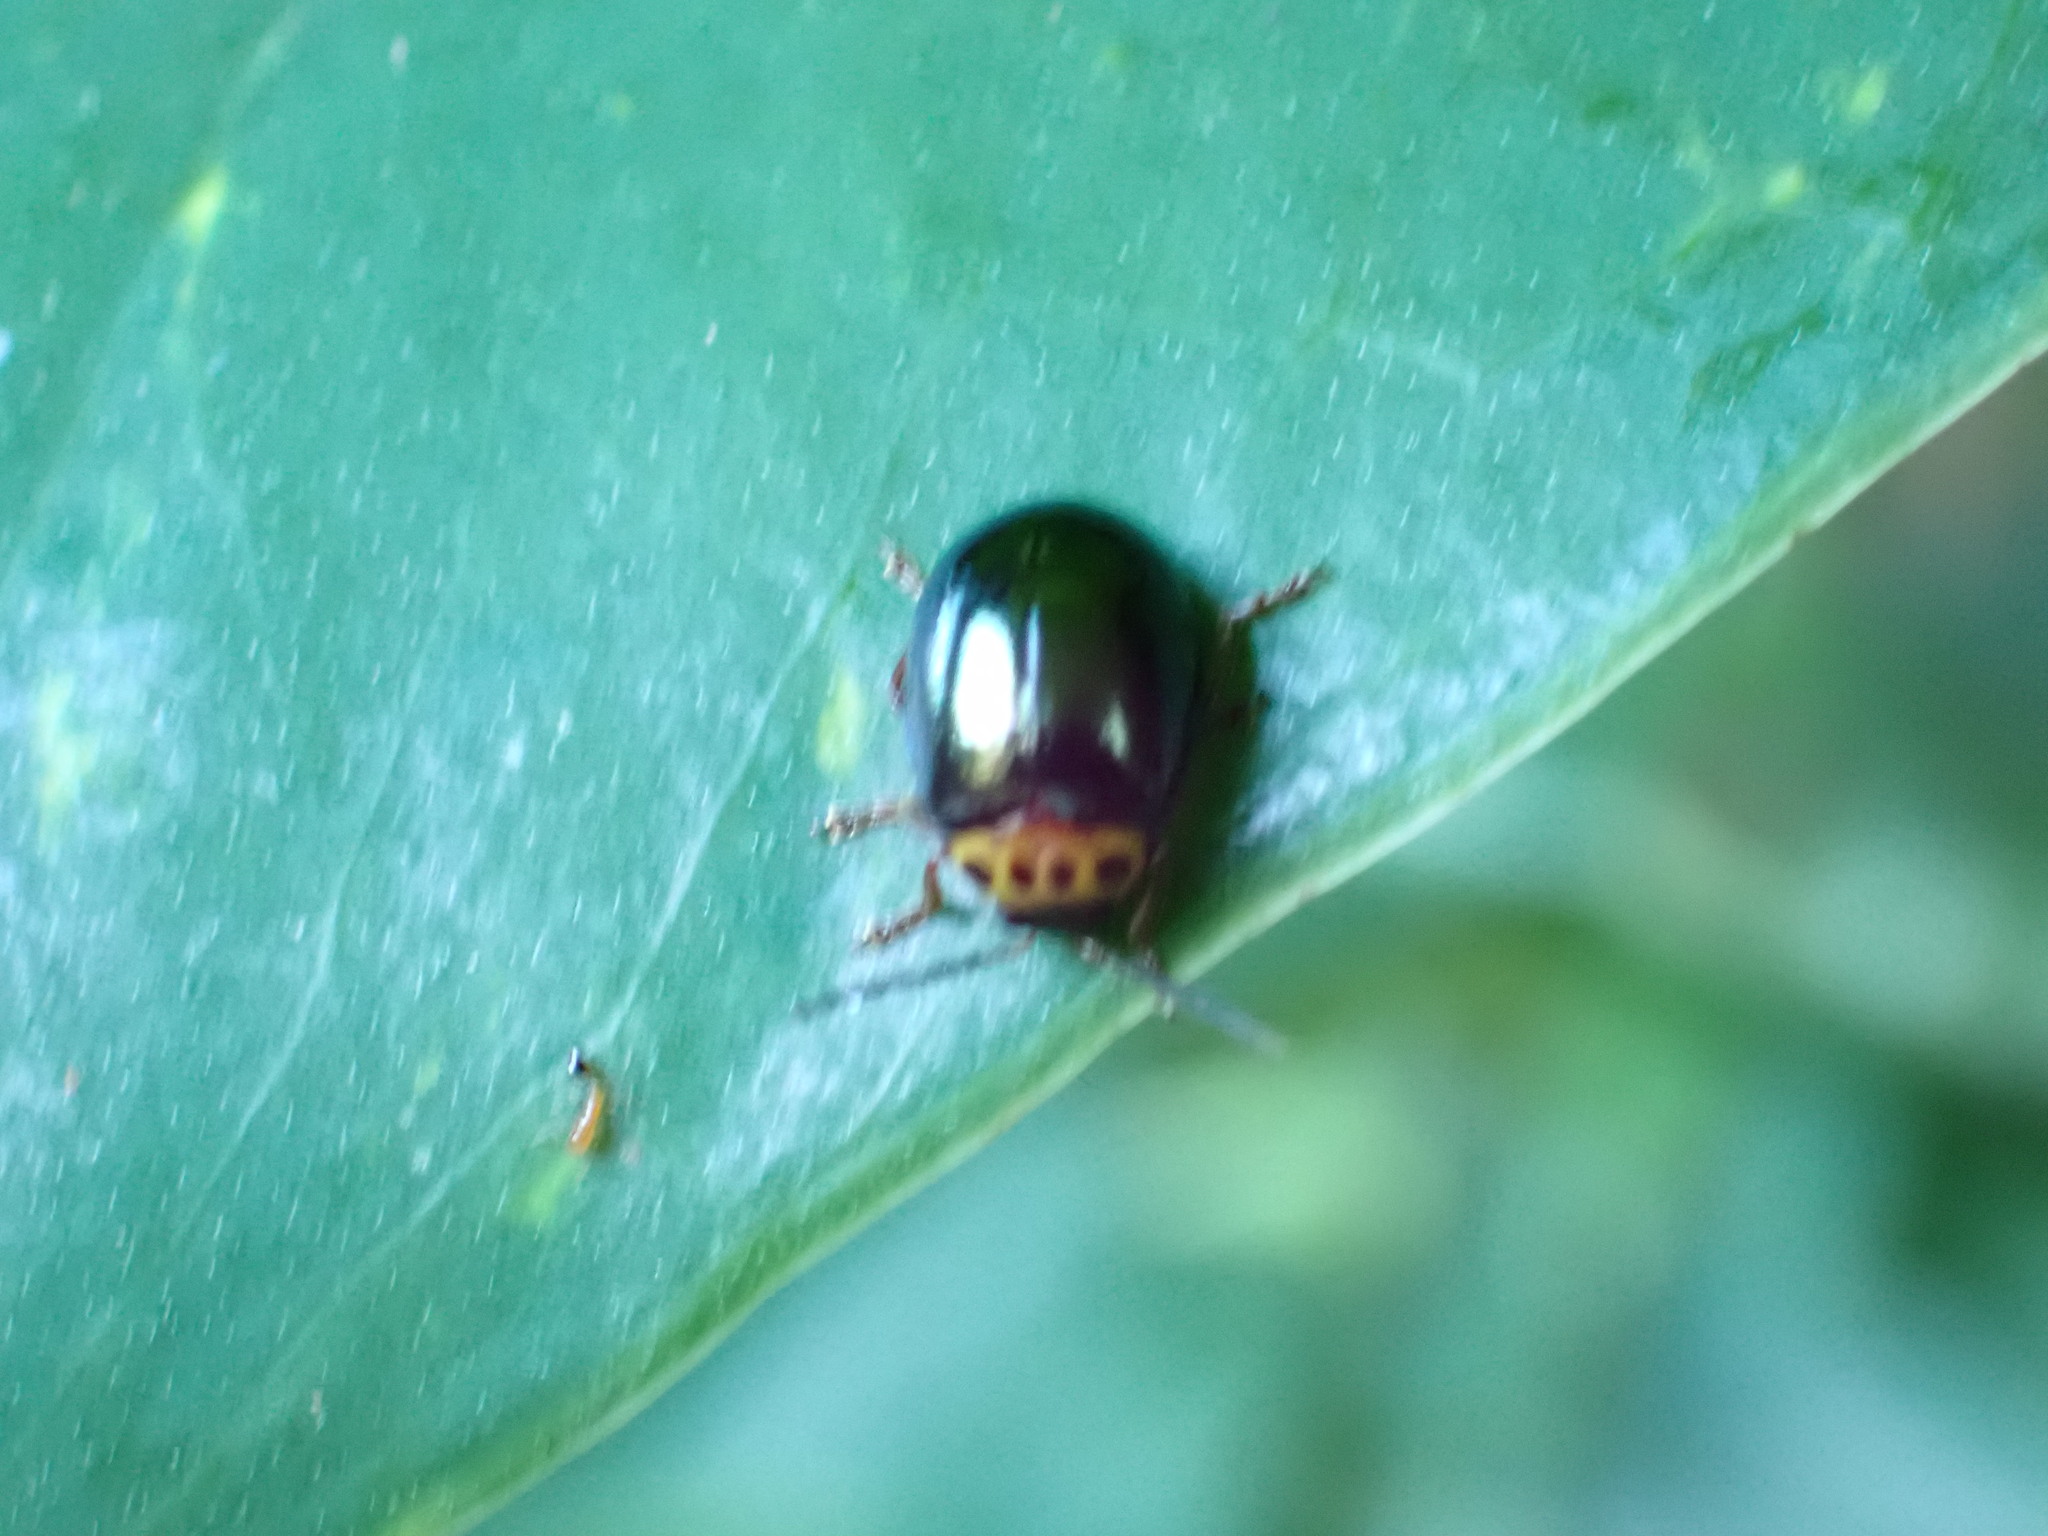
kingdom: Animalia
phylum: Arthropoda
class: Insecta
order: Coleoptera
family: Chrysomelidae
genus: Morphosphaera
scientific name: Morphosphaera chrysomeloides
